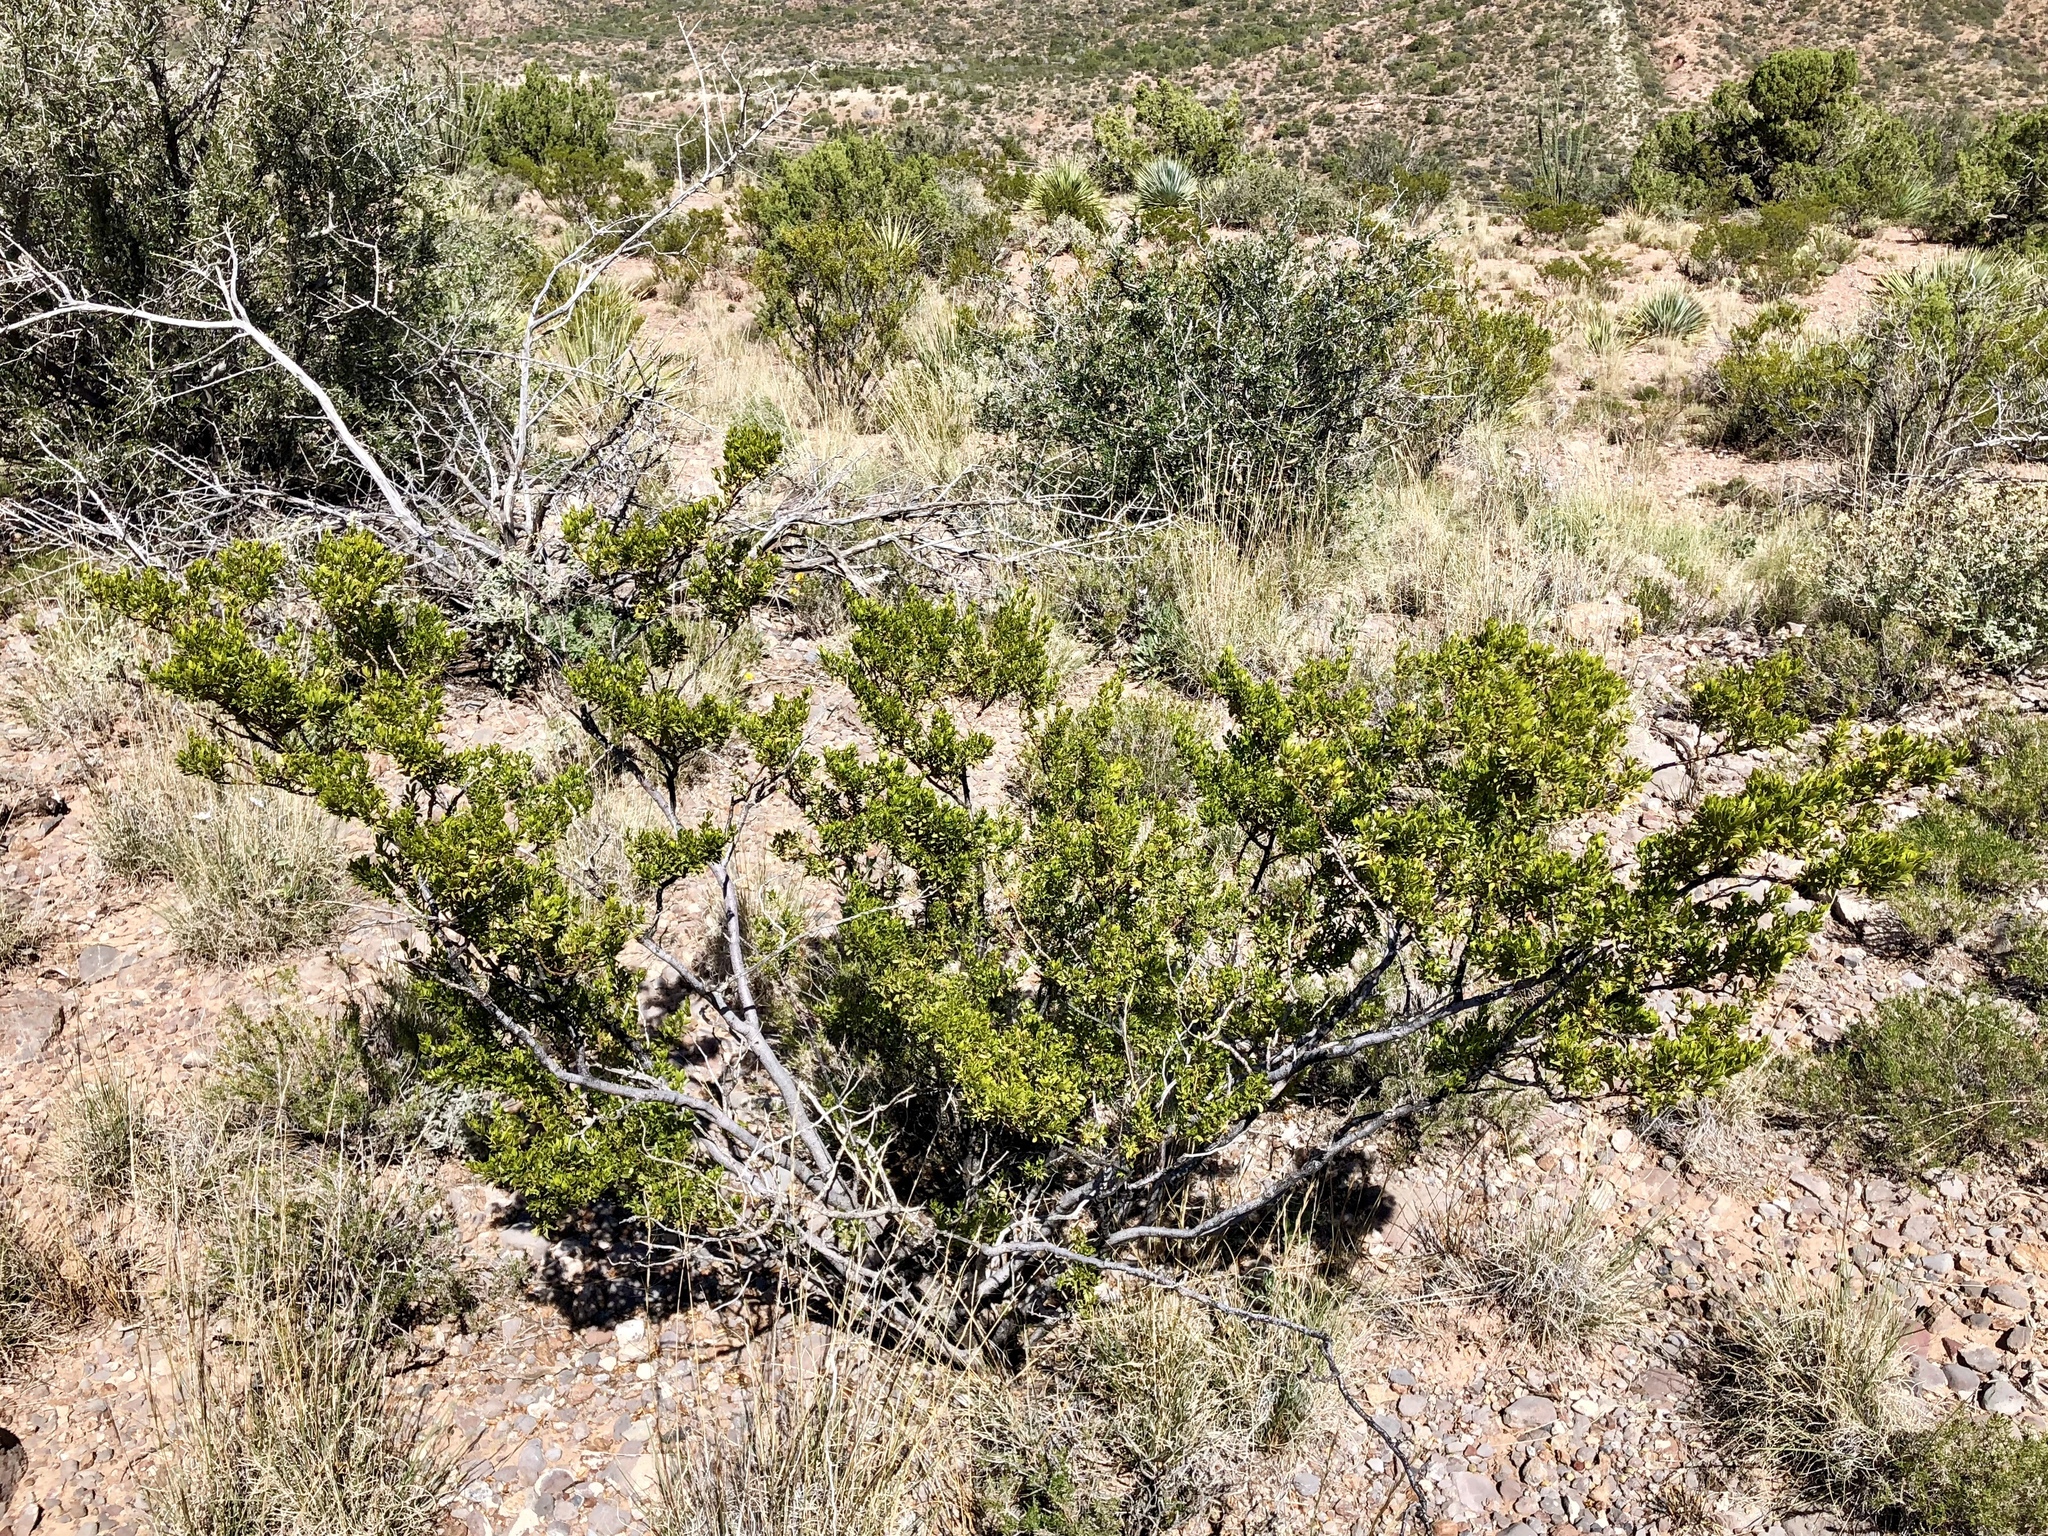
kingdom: Plantae
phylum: Tracheophyta
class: Magnoliopsida
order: Zygophyllales
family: Zygophyllaceae
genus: Larrea
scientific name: Larrea tridentata
